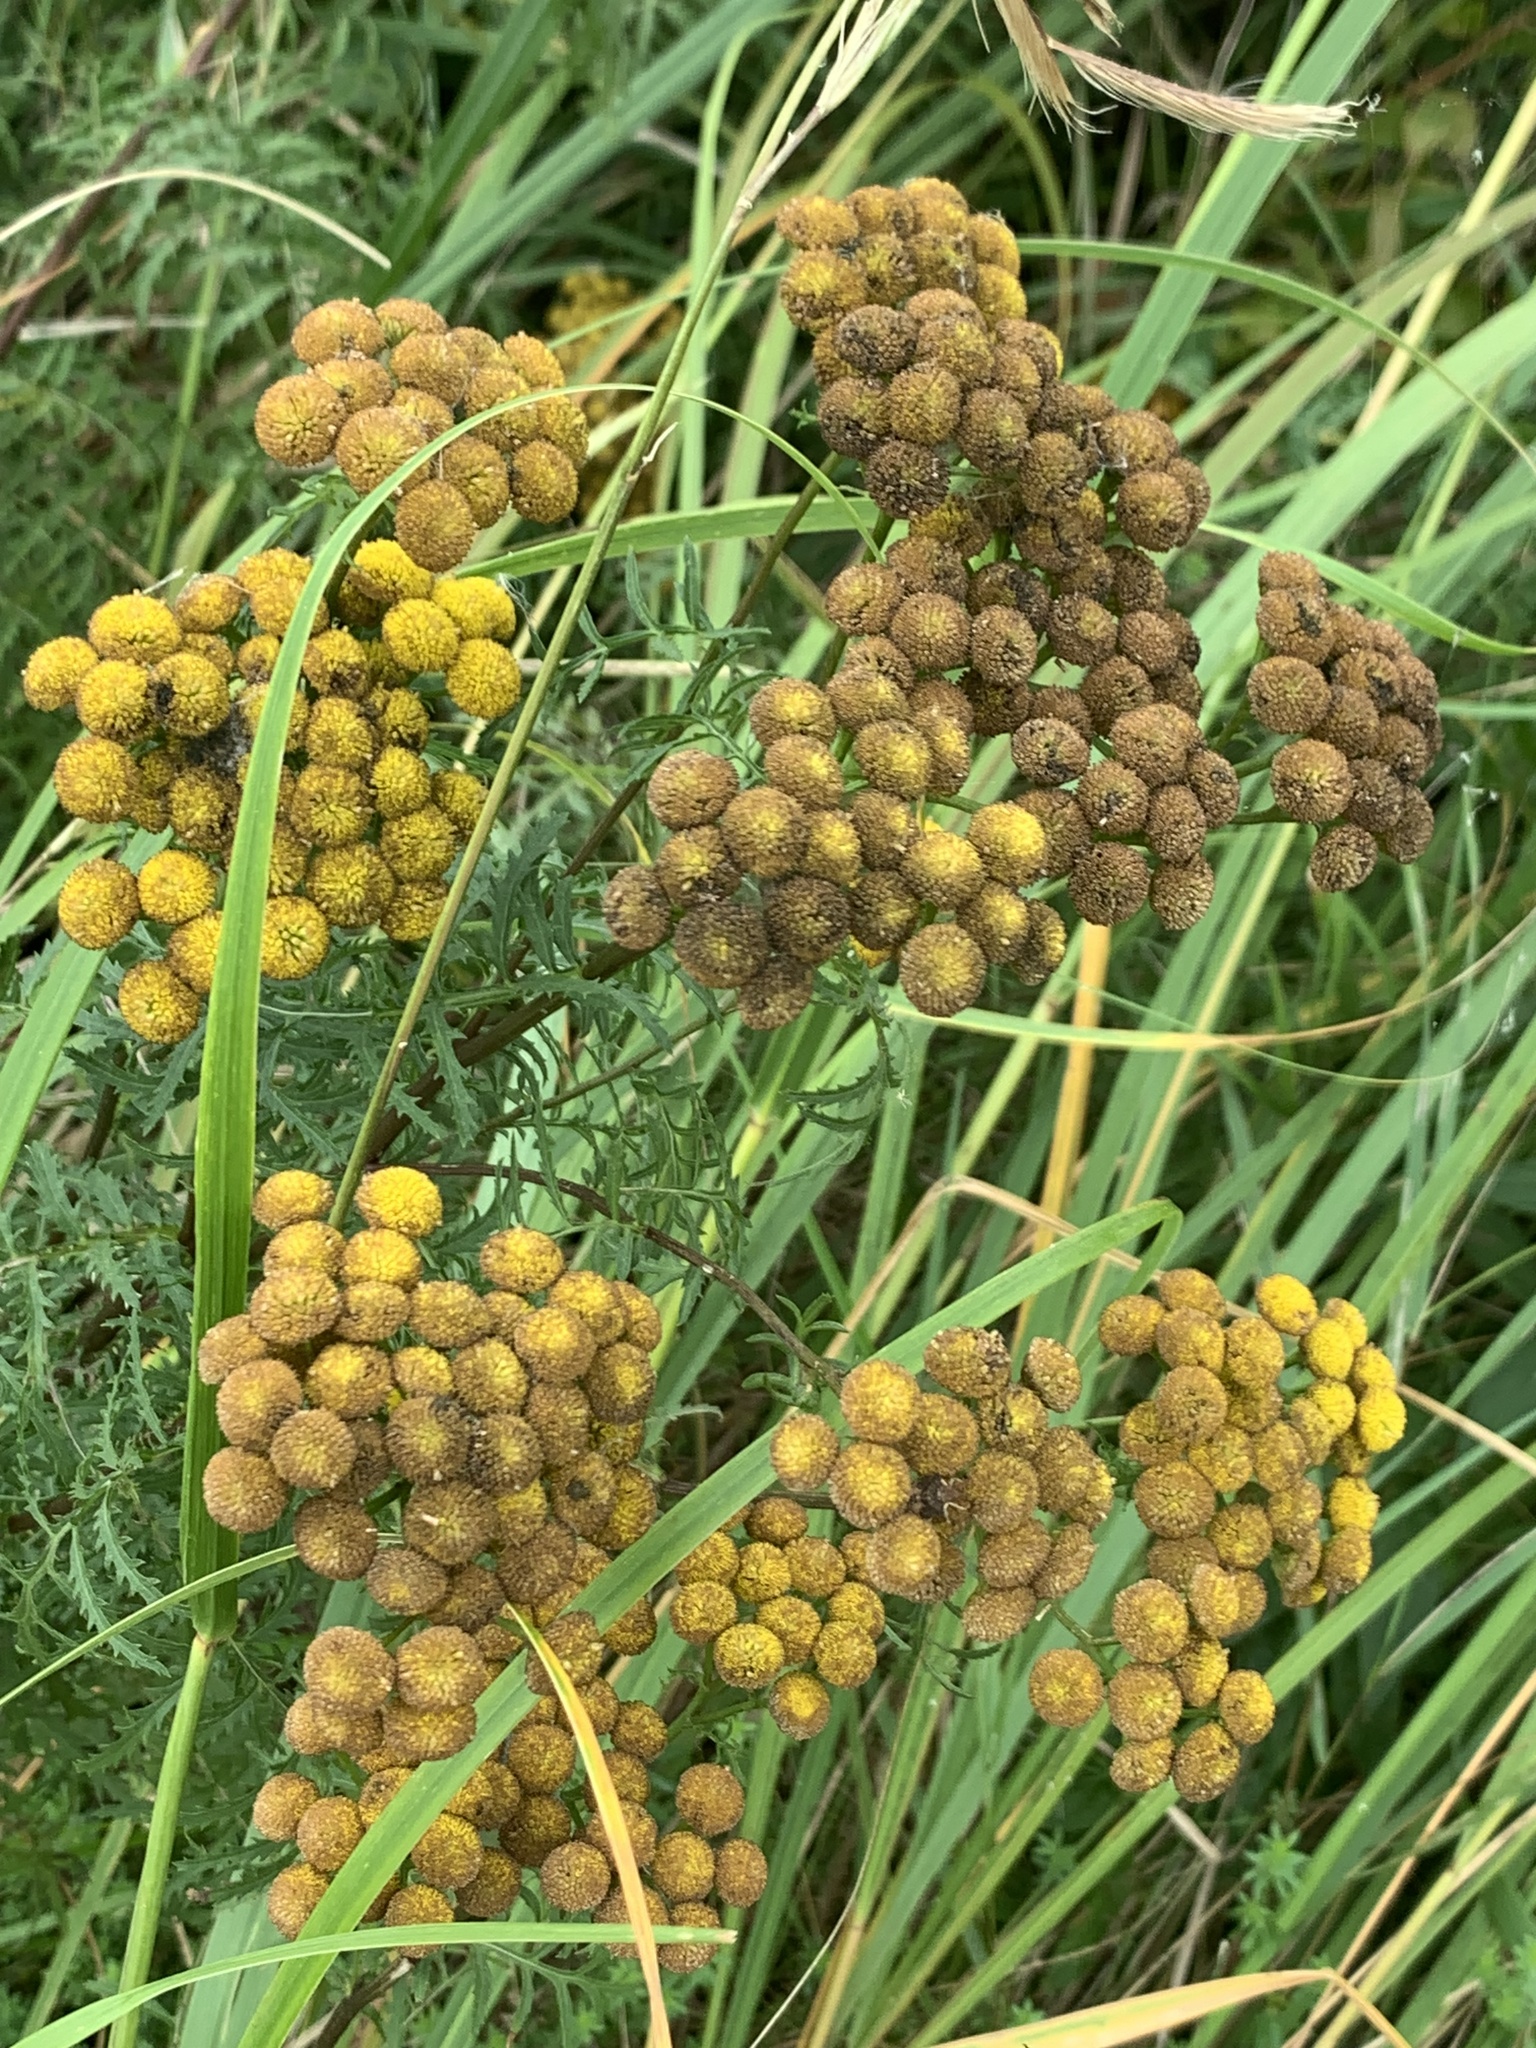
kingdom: Plantae
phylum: Tracheophyta
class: Magnoliopsida
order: Asterales
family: Asteraceae
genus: Tanacetum
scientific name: Tanacetum vulgare
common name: Common tansy
